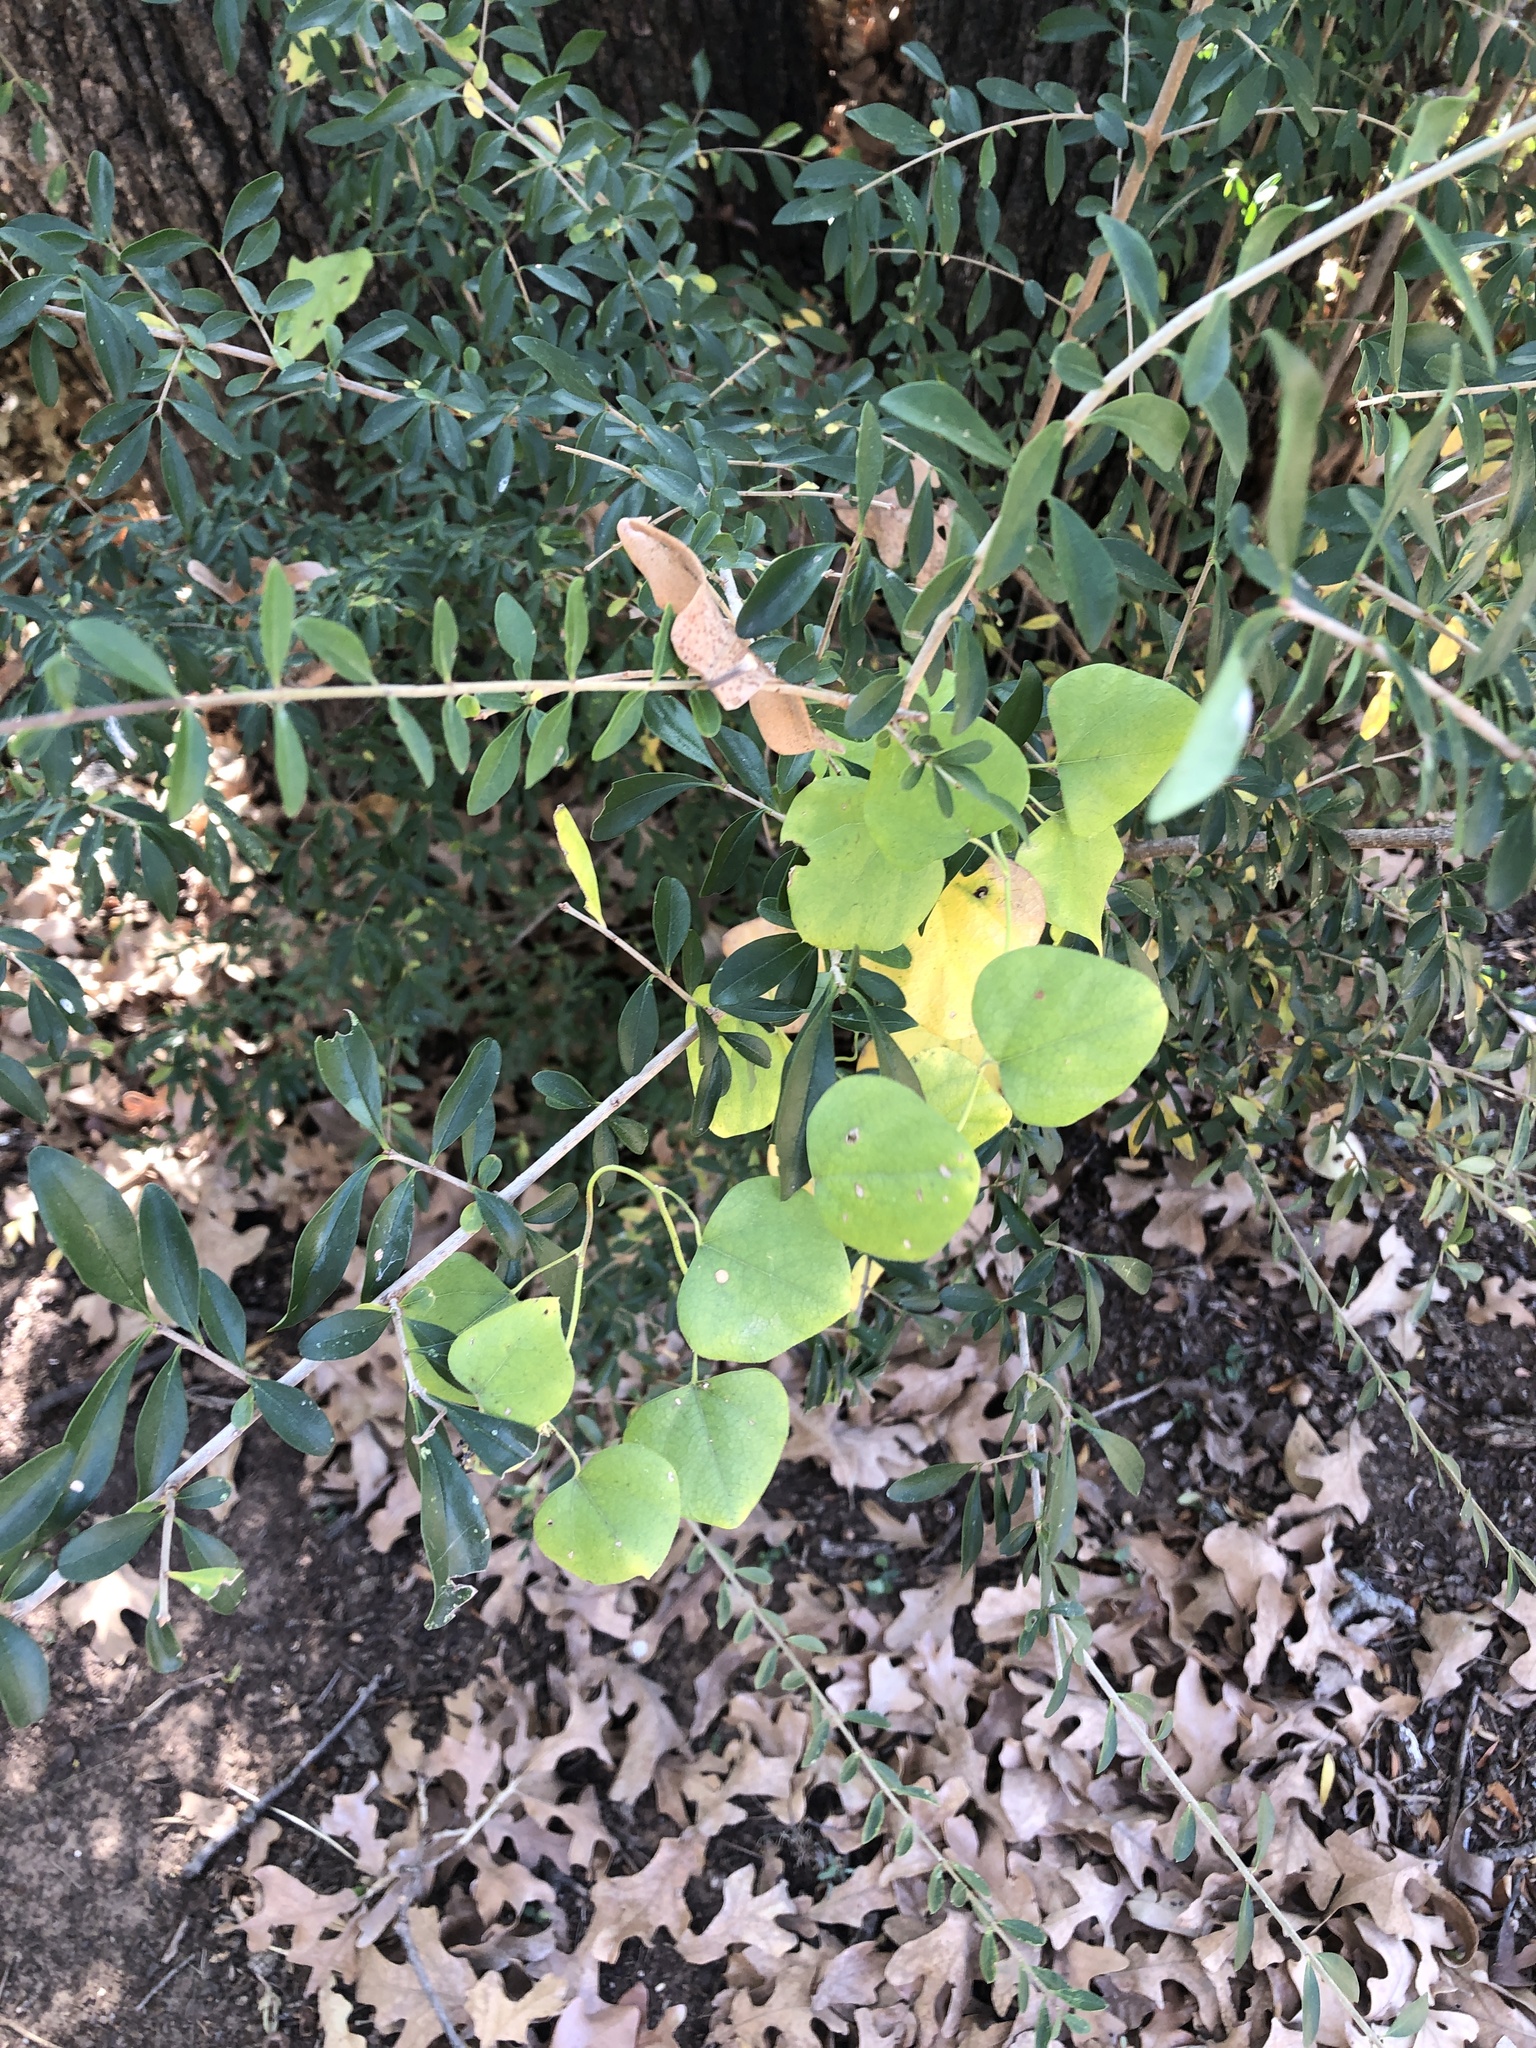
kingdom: Plantae
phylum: Tracheophyta
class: Magnoliopsida
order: Ranunculales
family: Menispermaceae
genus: Cocculus
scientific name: Cocculus carolinus
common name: Carolina moonseed
